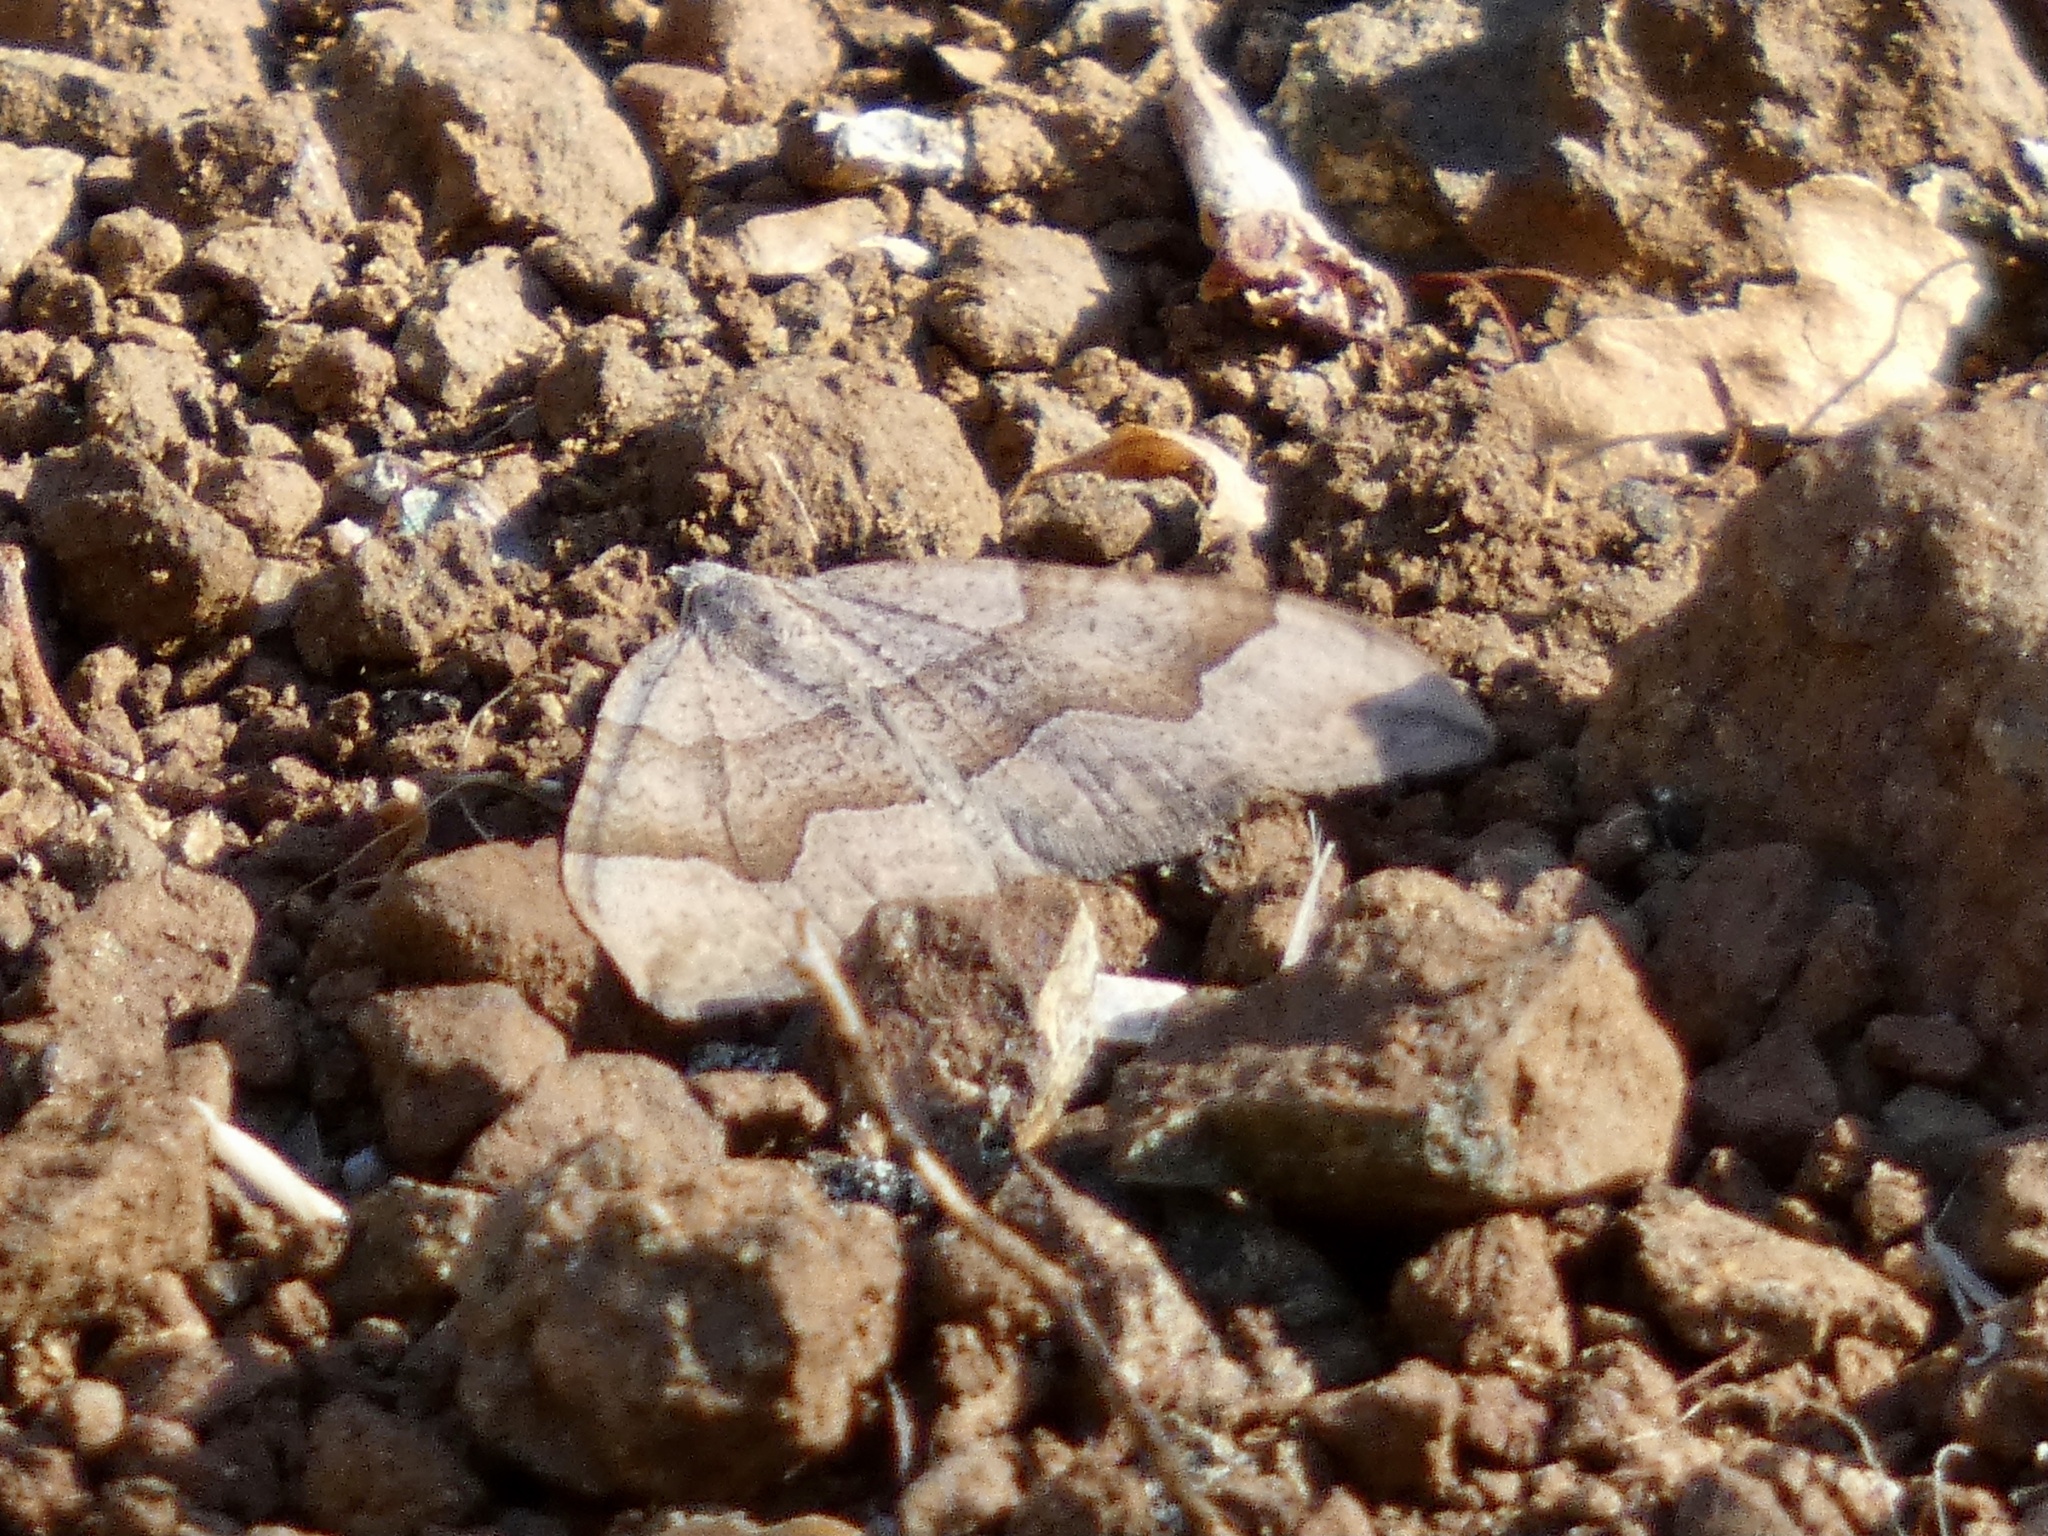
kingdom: Animalia
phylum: Arthropoda
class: Insecta
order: Lepidoptera
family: Geometridae
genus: Zenophleps
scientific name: Zenophleps lignicolorata
